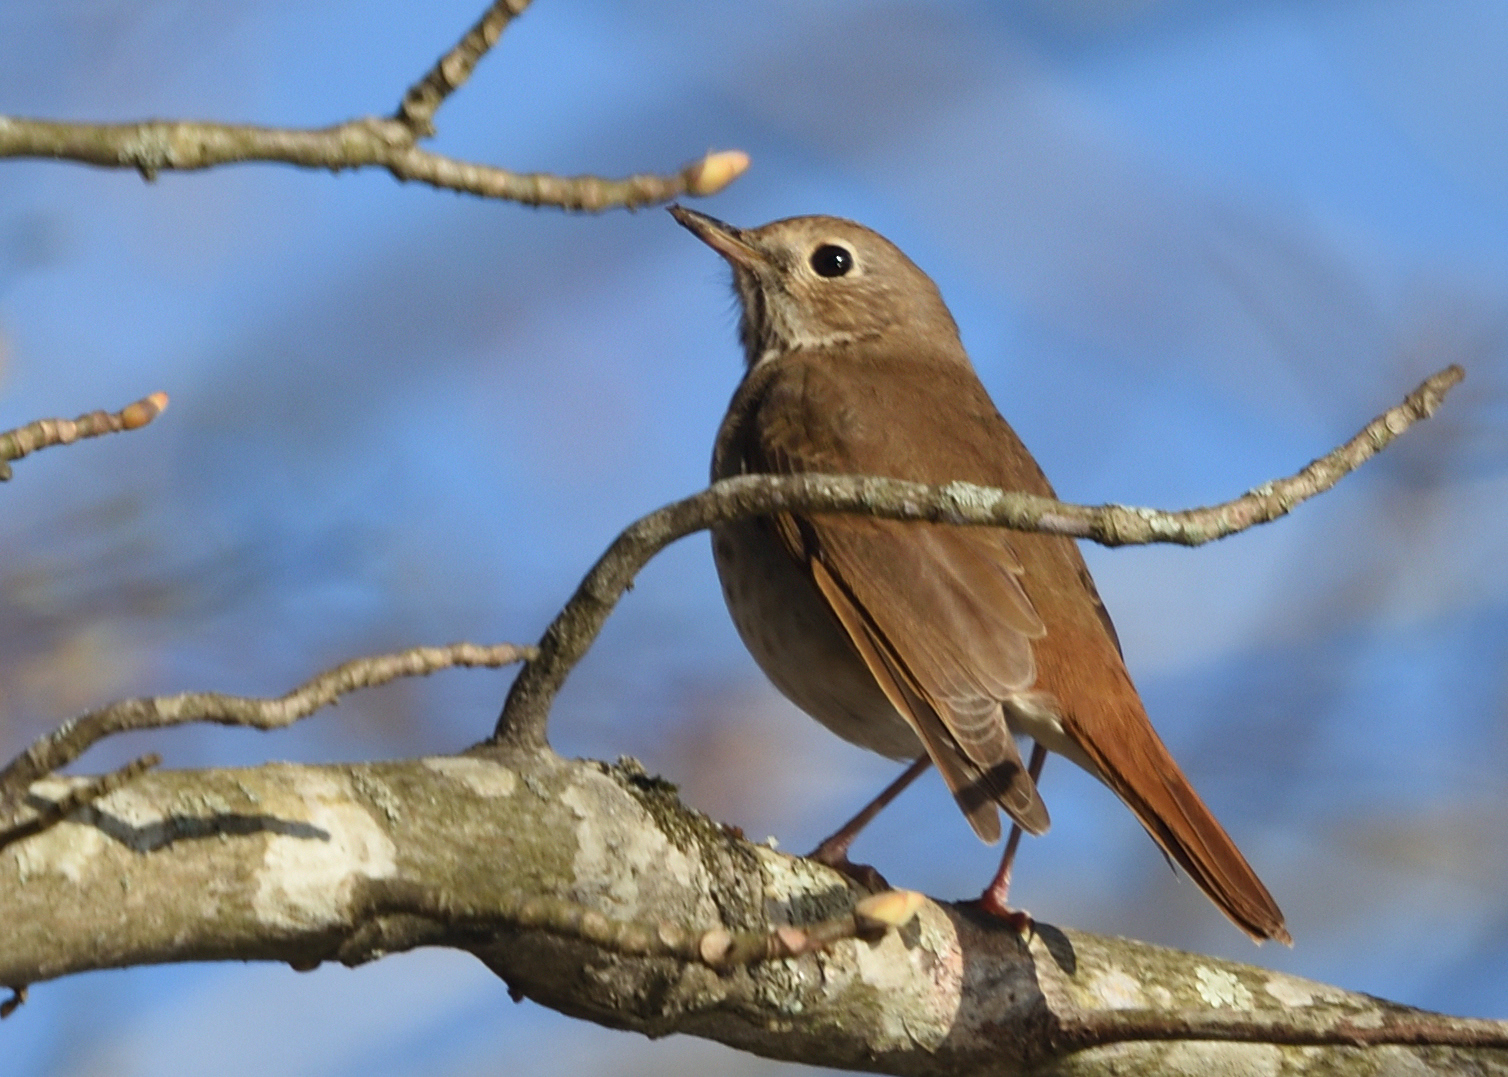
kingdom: Animalia
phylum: Chordata
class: Aves
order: Passeriformes
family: Turdidae
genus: Catharus
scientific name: Catharus guttatus
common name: Hermit thrush
